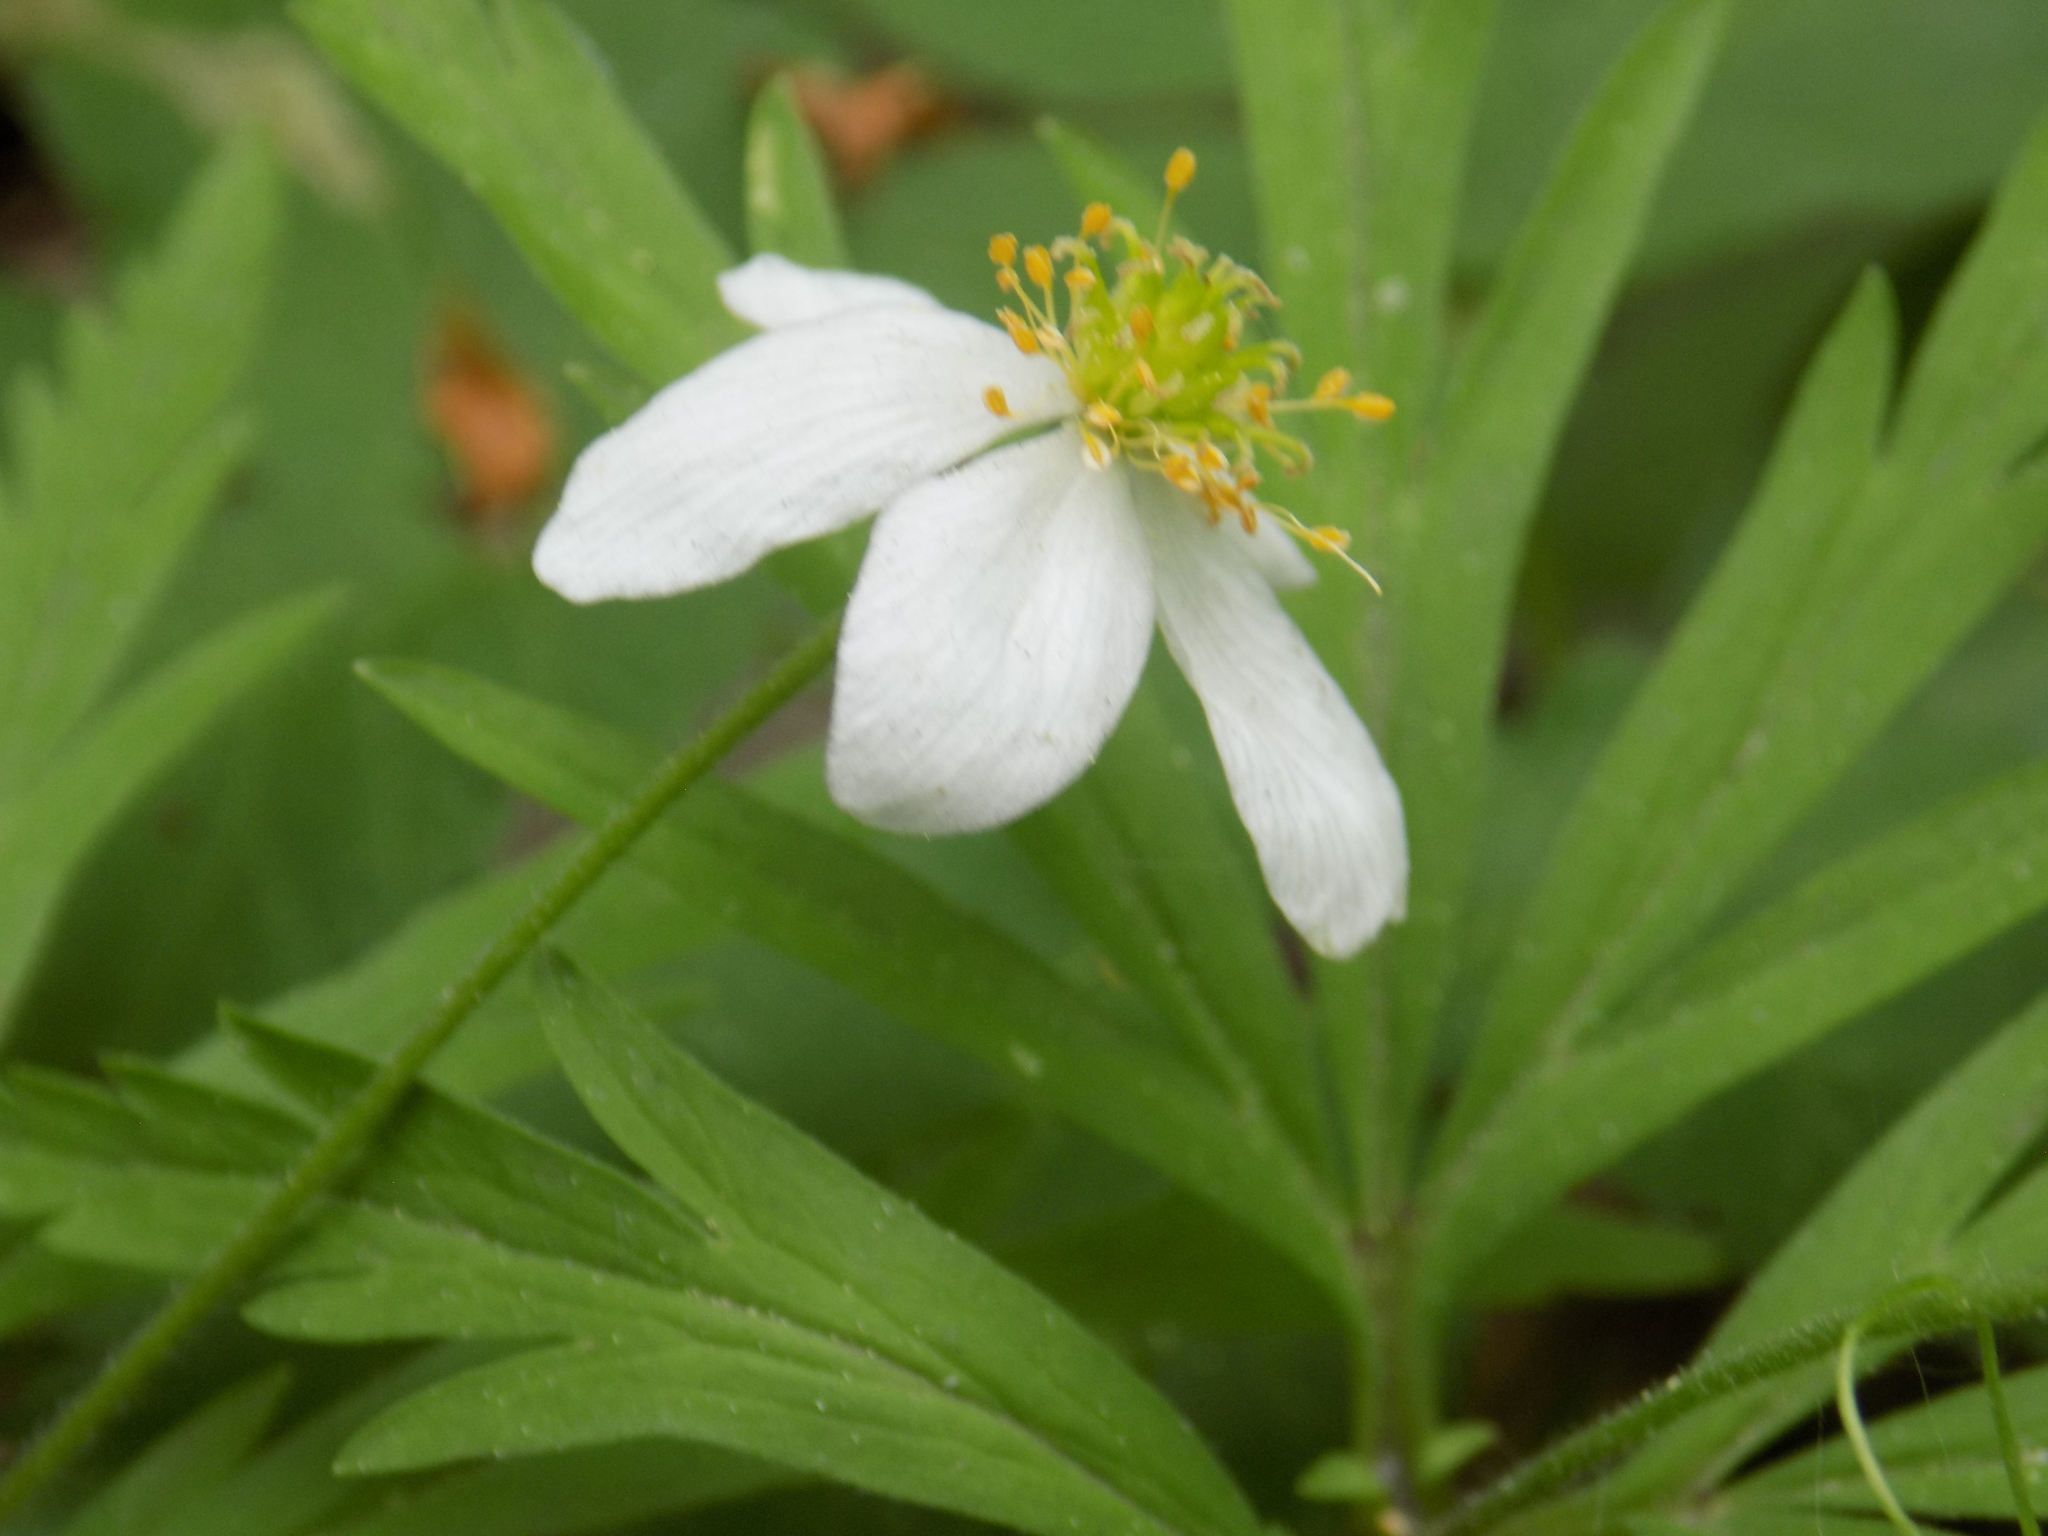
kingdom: Plantae
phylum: Tracheophyta
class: Magnoliopsida
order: Ranunculales
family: Ranunculaceae
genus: Anemone
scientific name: Anemone caerulea
